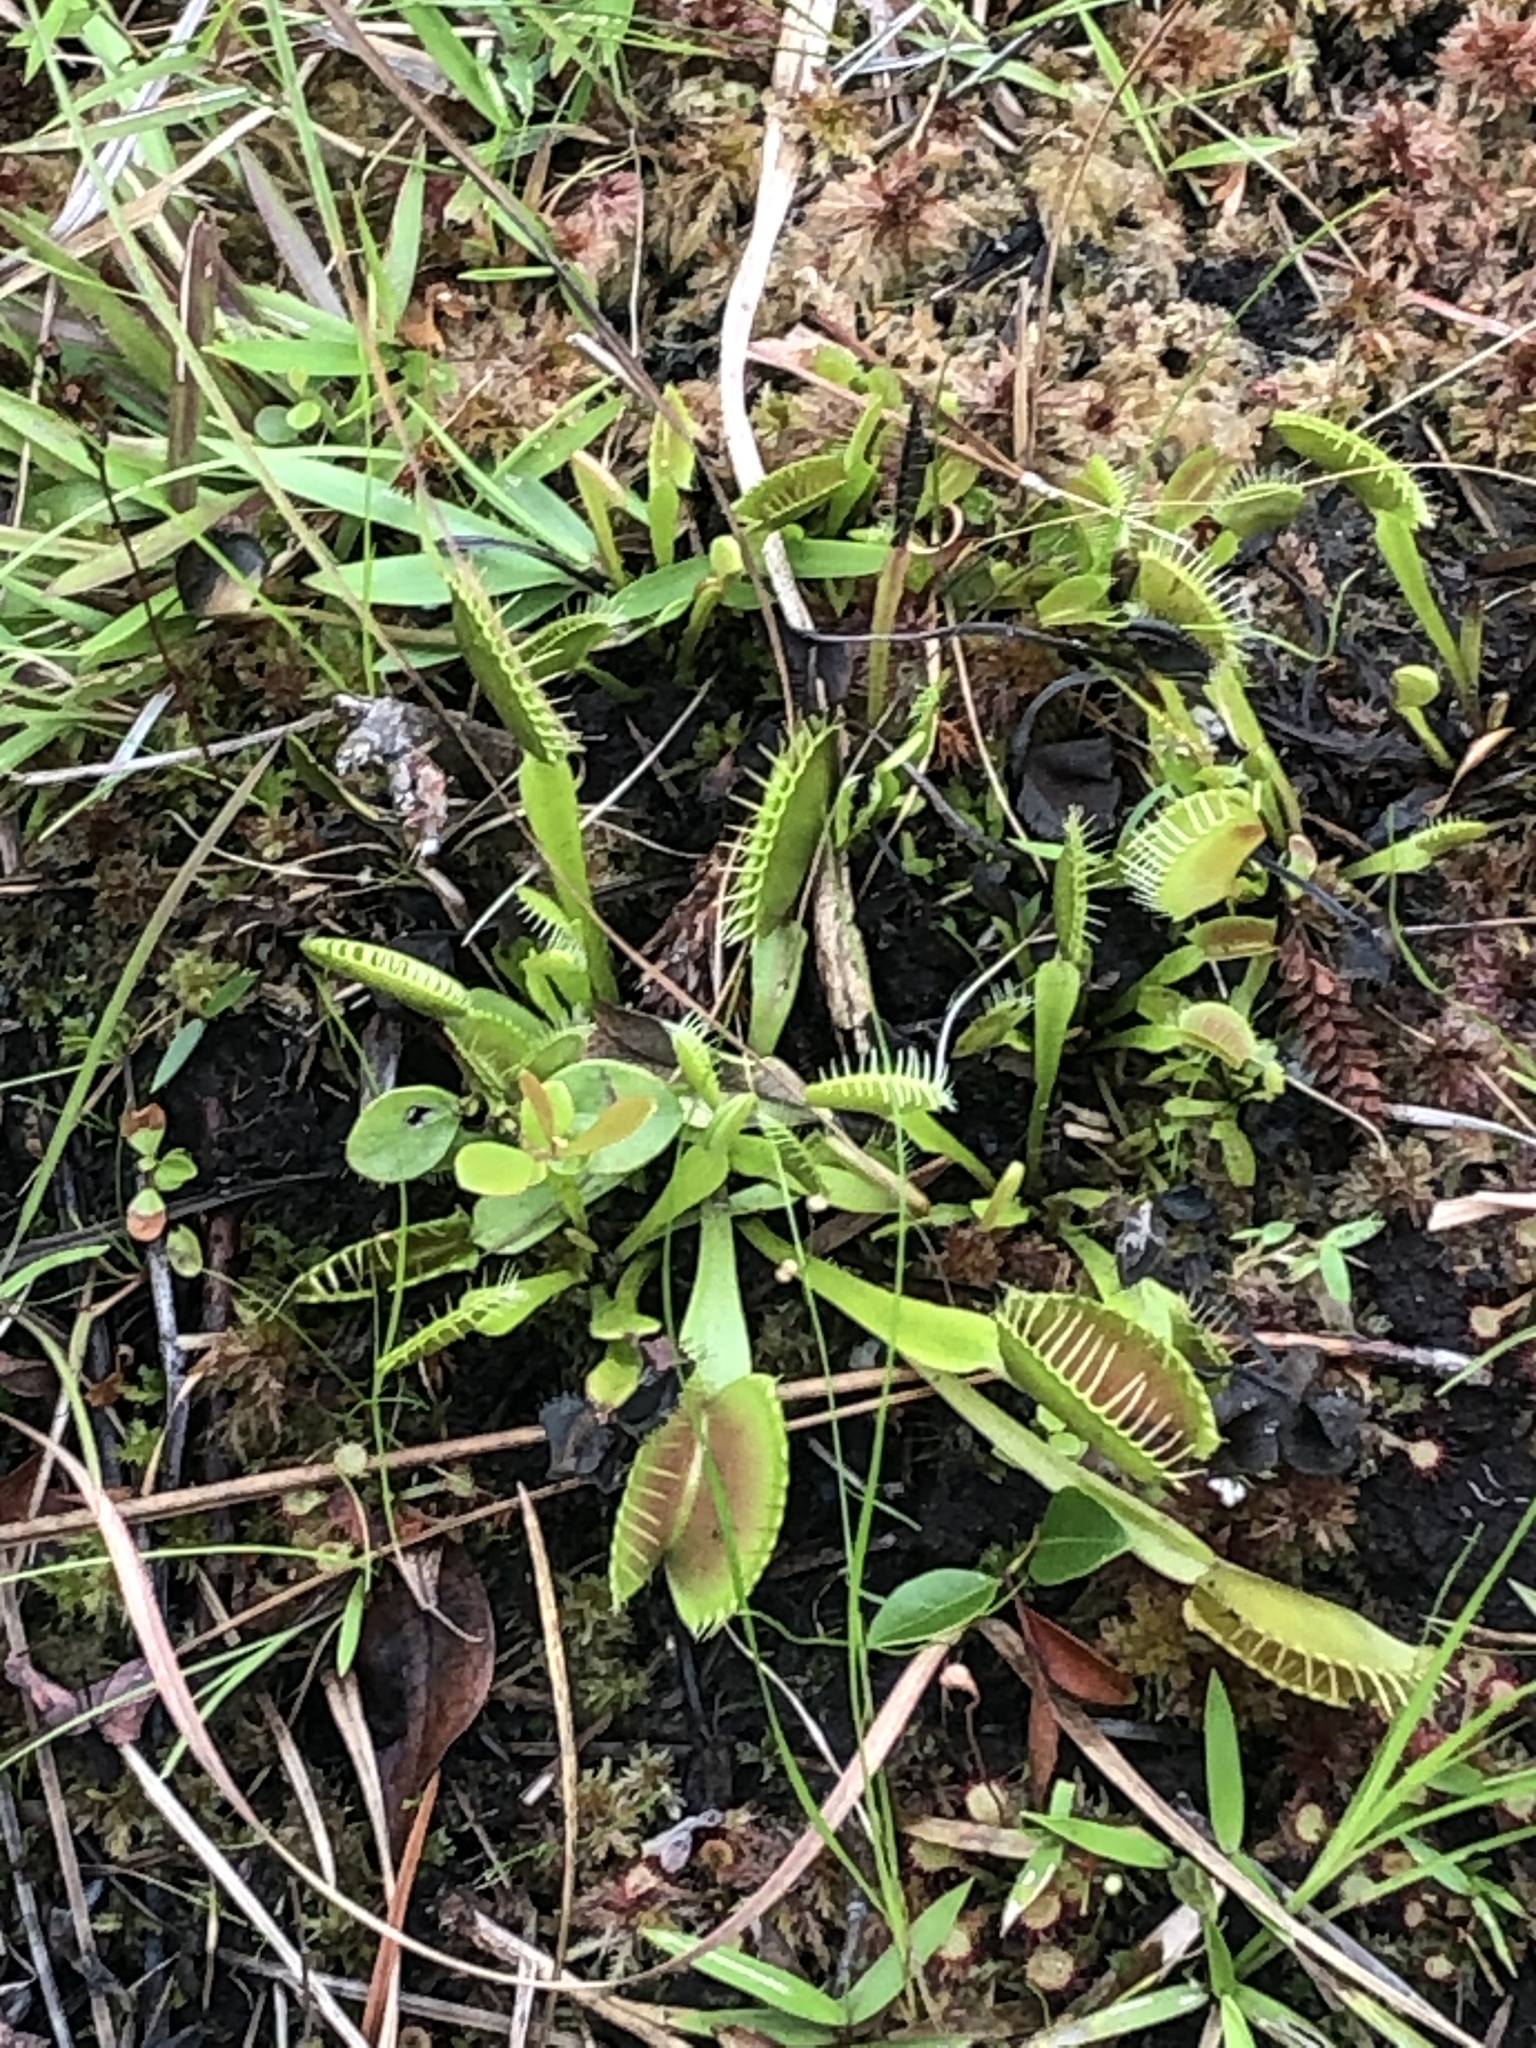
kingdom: Plantae
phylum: Tracheophyta
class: Magnoliopsida
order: Caryophyllales
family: Droseraceae
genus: Dionaea
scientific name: Dionaea muscipula
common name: Venus flytrap
